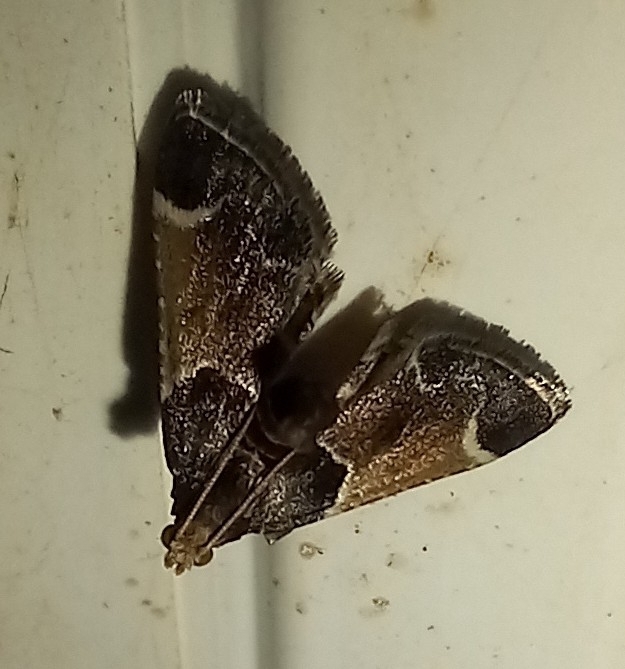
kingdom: Animalia
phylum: Arthropoda
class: Insecta
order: Lepidoptera
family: Pyralidae
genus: Pyralis
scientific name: Pyralis farinalis
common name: Meal moth
